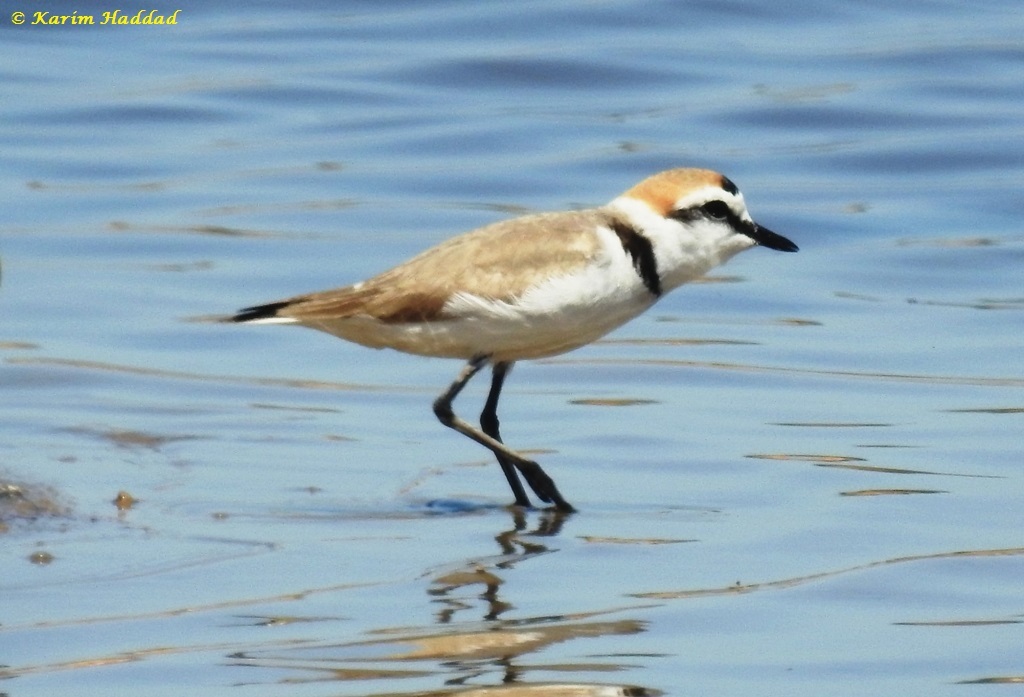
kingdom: Animalia
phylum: Chordata
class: Aves
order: Charadriiformes
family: Charadriidae
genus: Charadrius
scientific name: Charadrius alexandrinus
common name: Kentish plover
